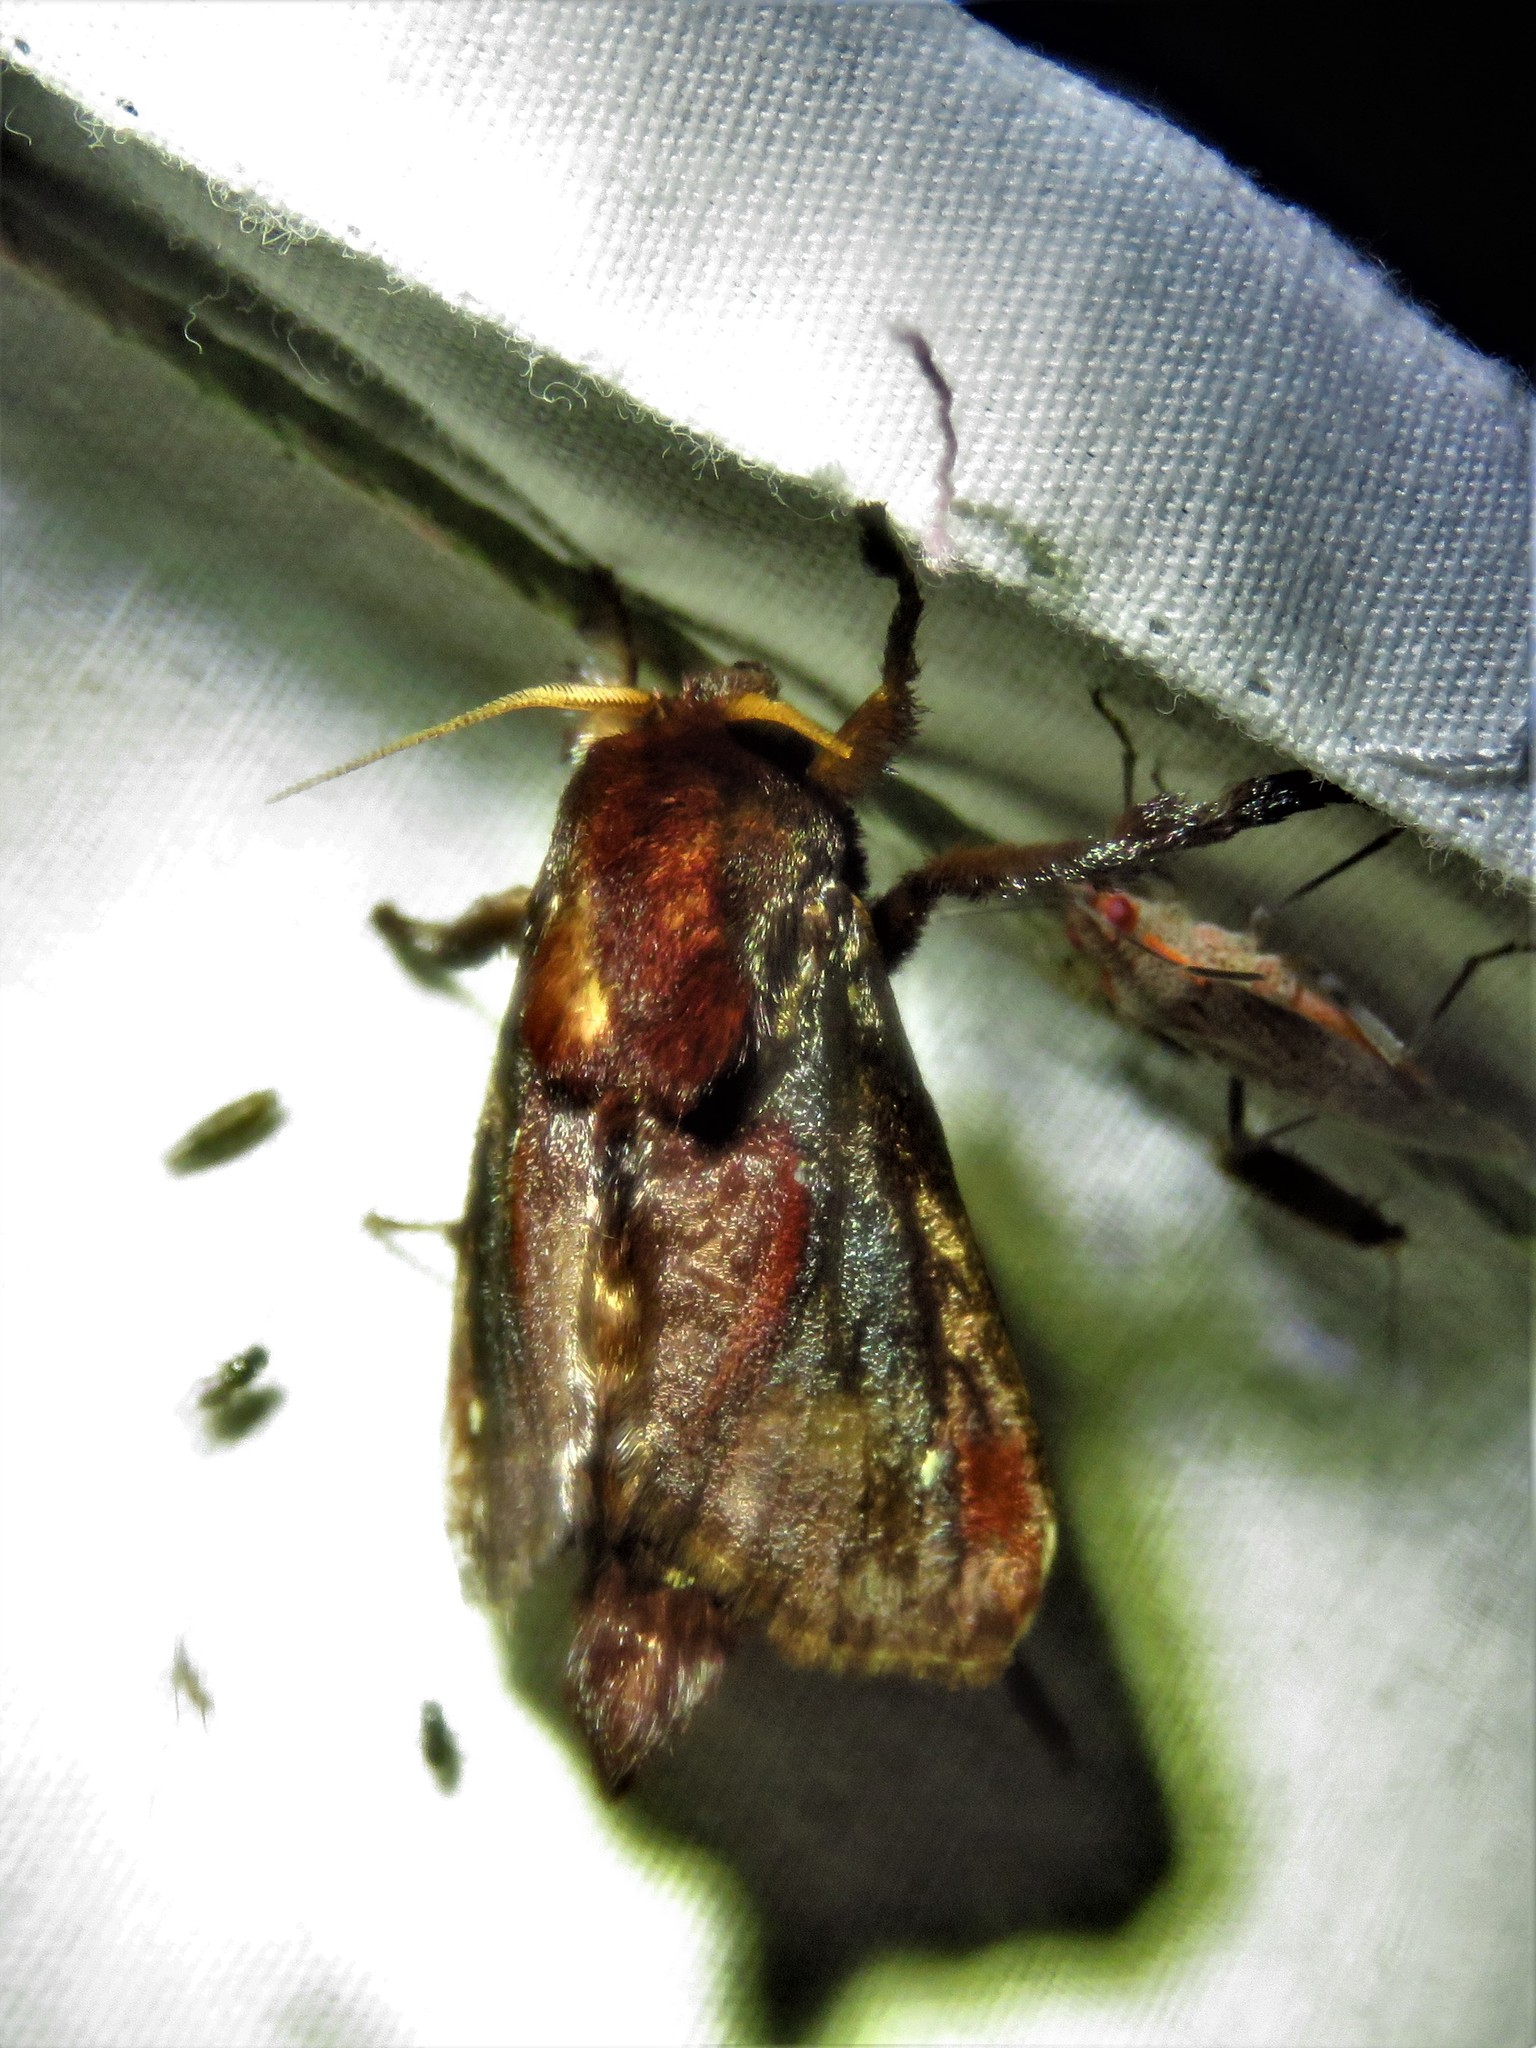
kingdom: Animalia
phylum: Arthropoda
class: Insecta
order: Lepidoptera
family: Limacodidae
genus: Acharia
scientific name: Acharia
